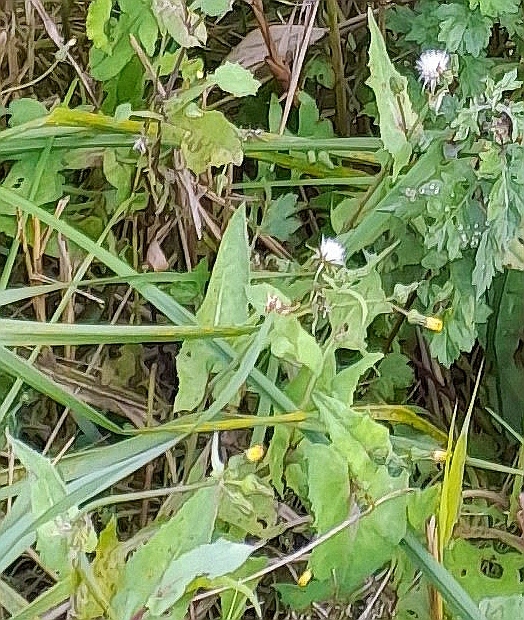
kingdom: Plantae
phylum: Tracheophyta
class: Magnoliopsida
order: Asterales
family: Asteraceae
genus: Sonchus
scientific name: Sonchus oleraceus
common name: Common sowthistle
